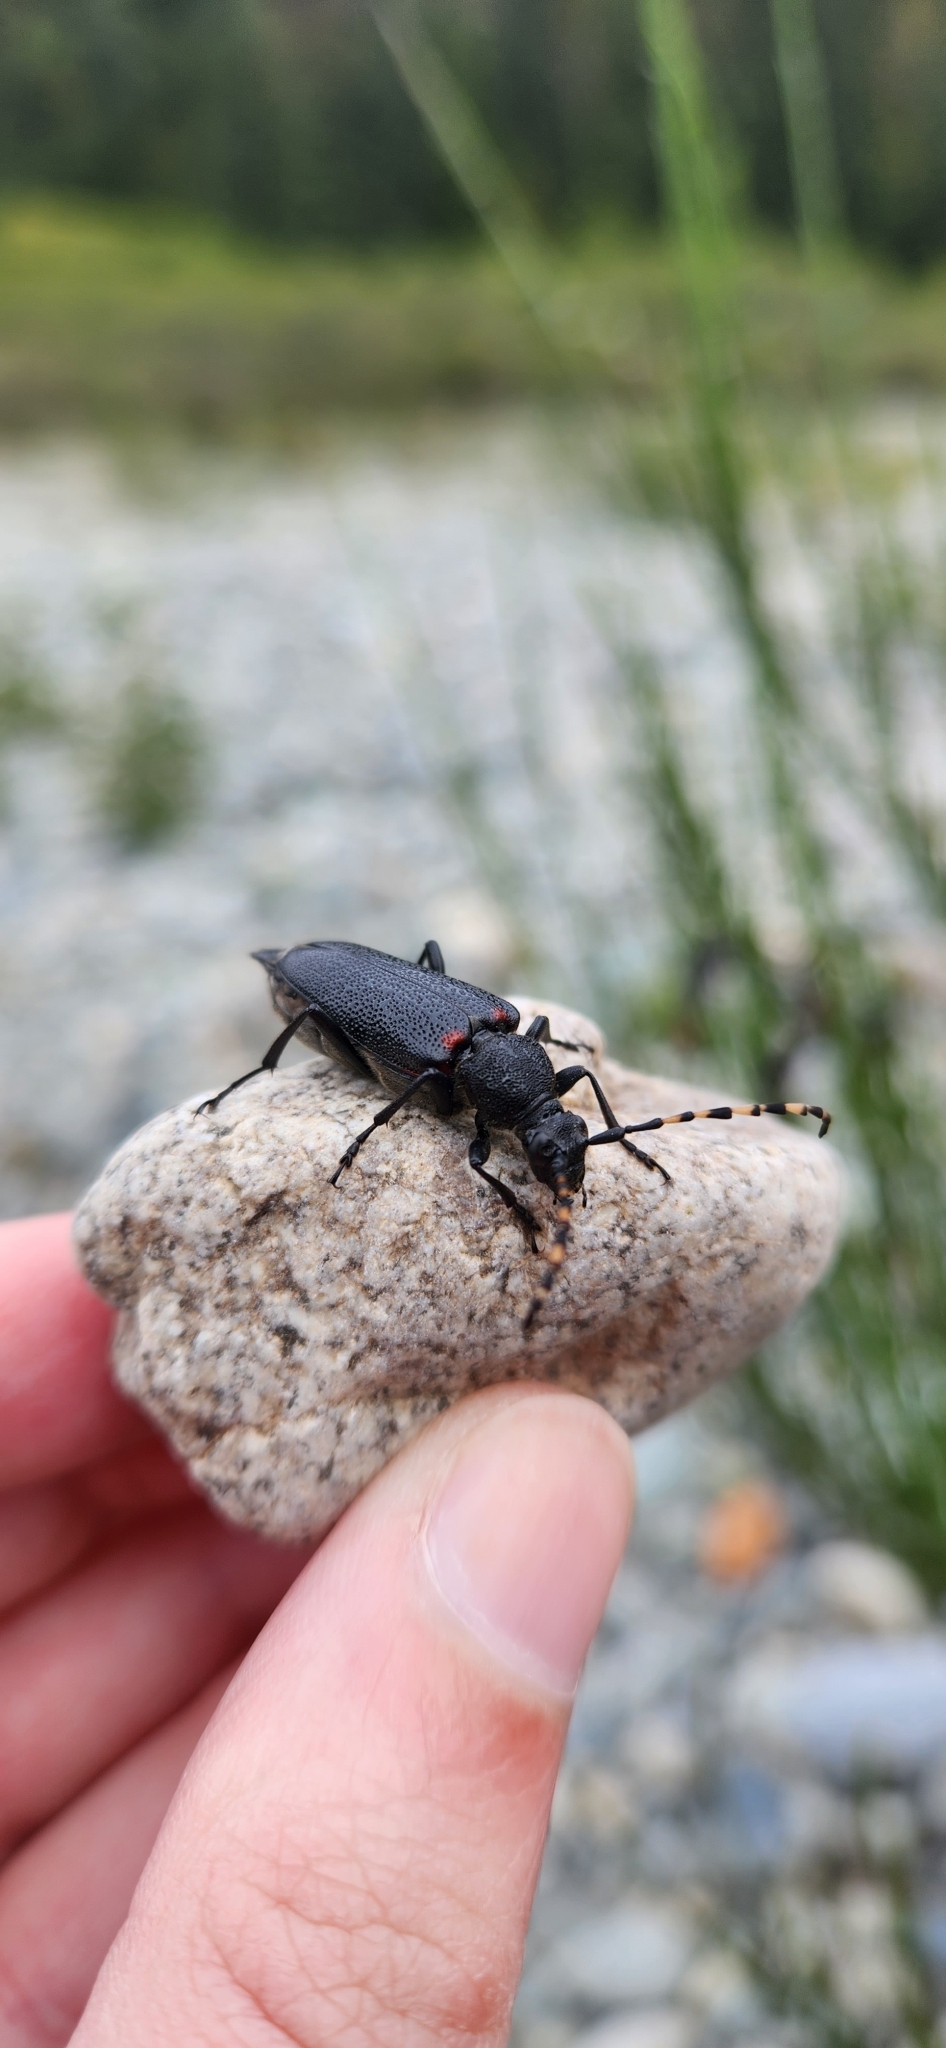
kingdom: Animalia
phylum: Arthropoda
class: Insecta
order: Coleoptera
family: Cerambycidae
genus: Stictoleptura
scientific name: Stictoleptura canadensis
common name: Red-shouldered pine borer
